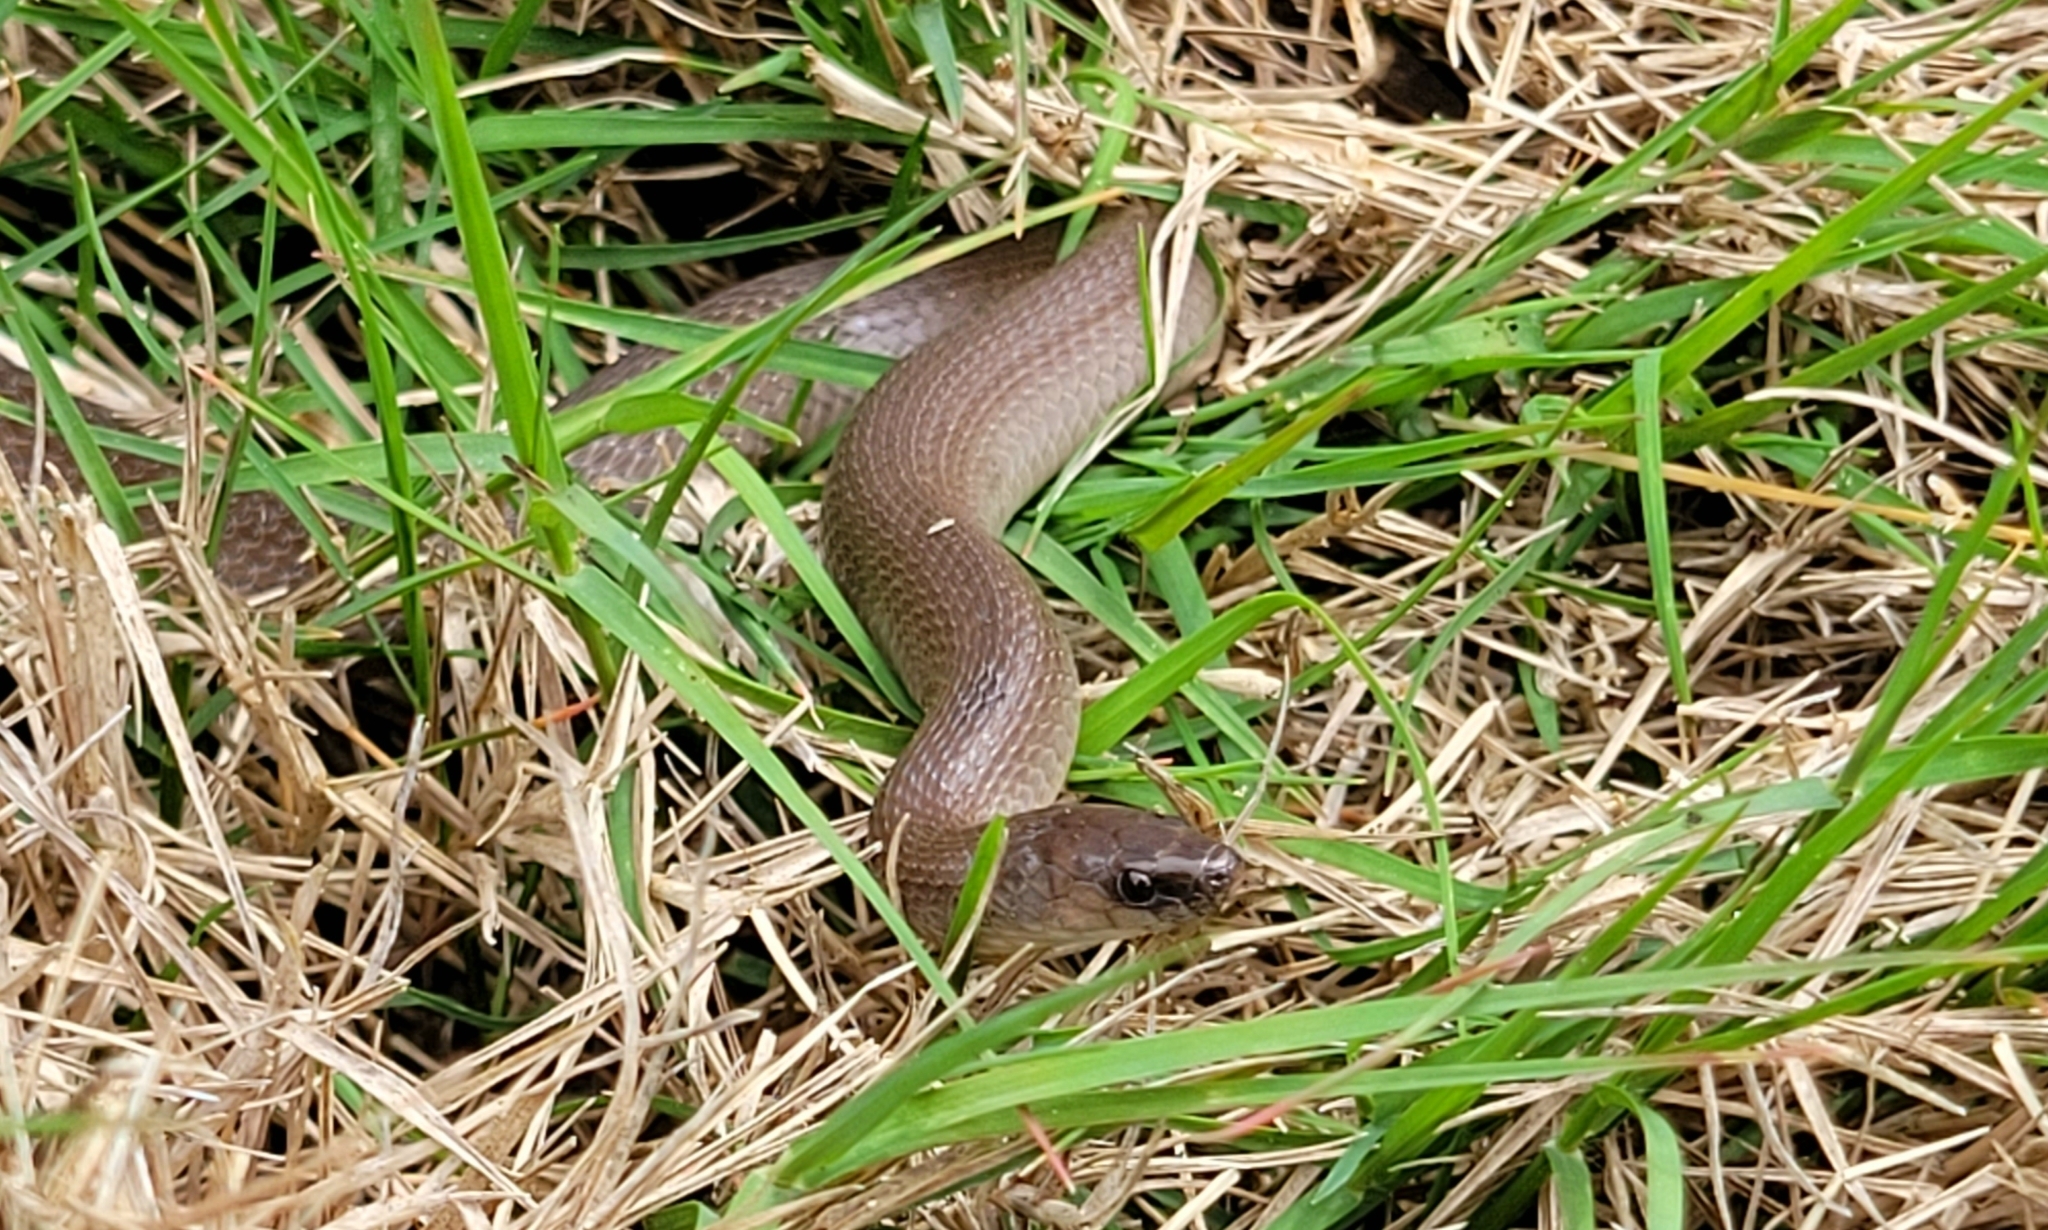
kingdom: Animalia
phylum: Chordata
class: Squamata
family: Colubridae
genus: Haldea
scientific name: Haldea striatula
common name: Rough earth snake
